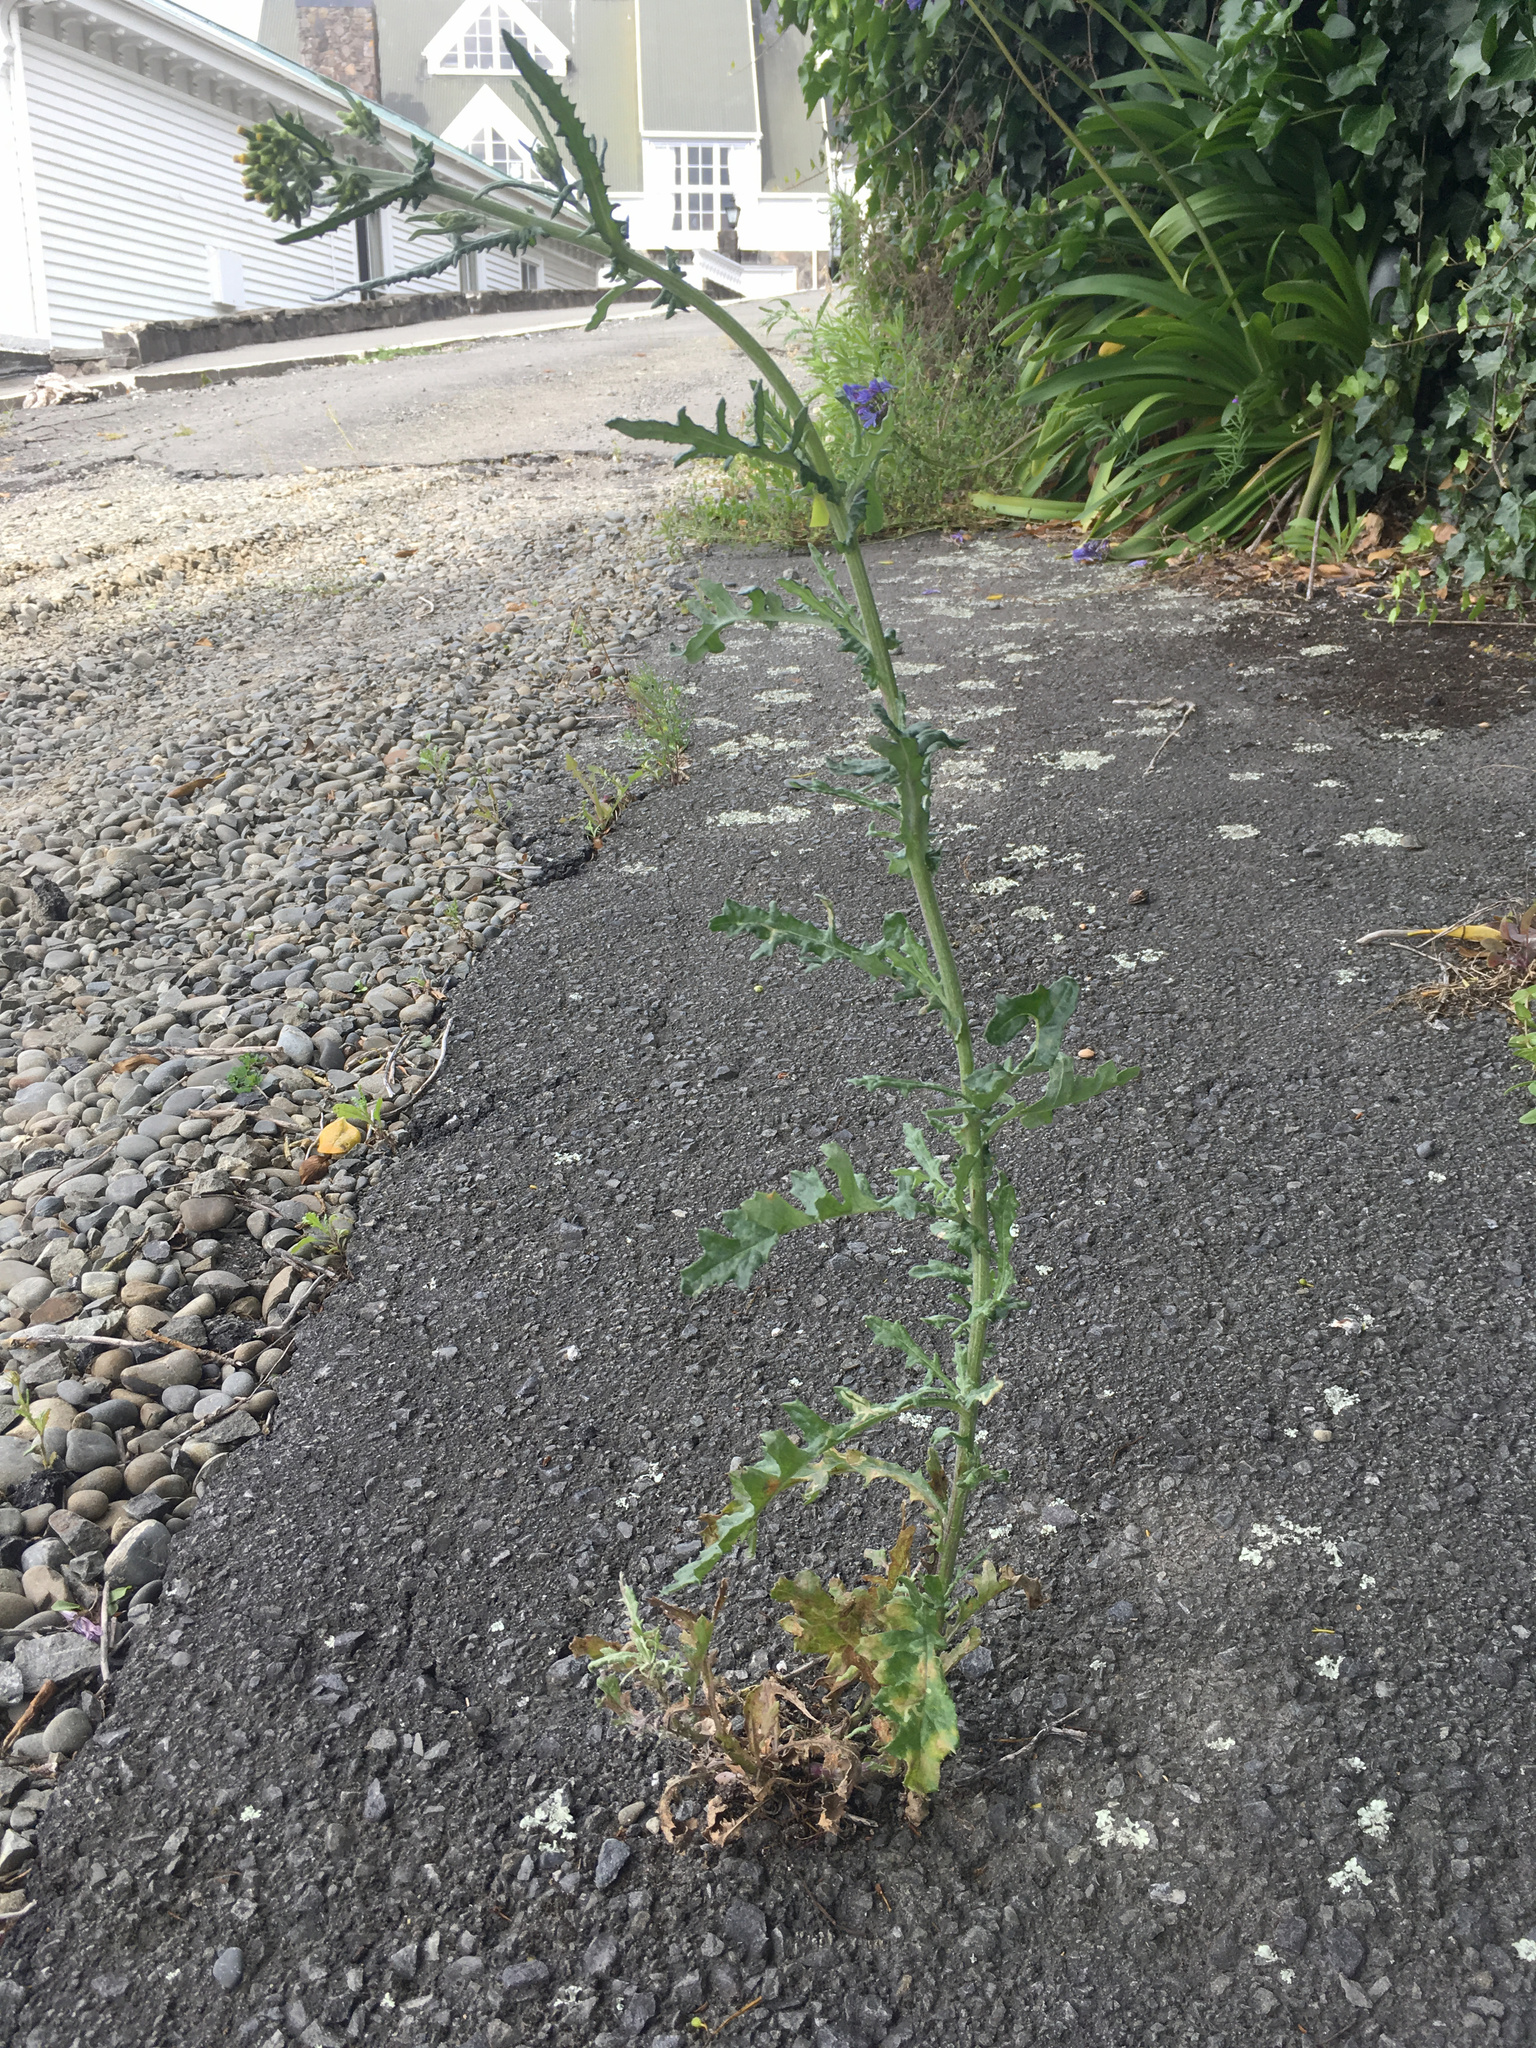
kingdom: Plantae
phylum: Tracheophyta
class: Magnoliopsida
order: Asterales
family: Asteraceae
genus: Senecio
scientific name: Senecio glomeratus
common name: Cutleaf burnweed
